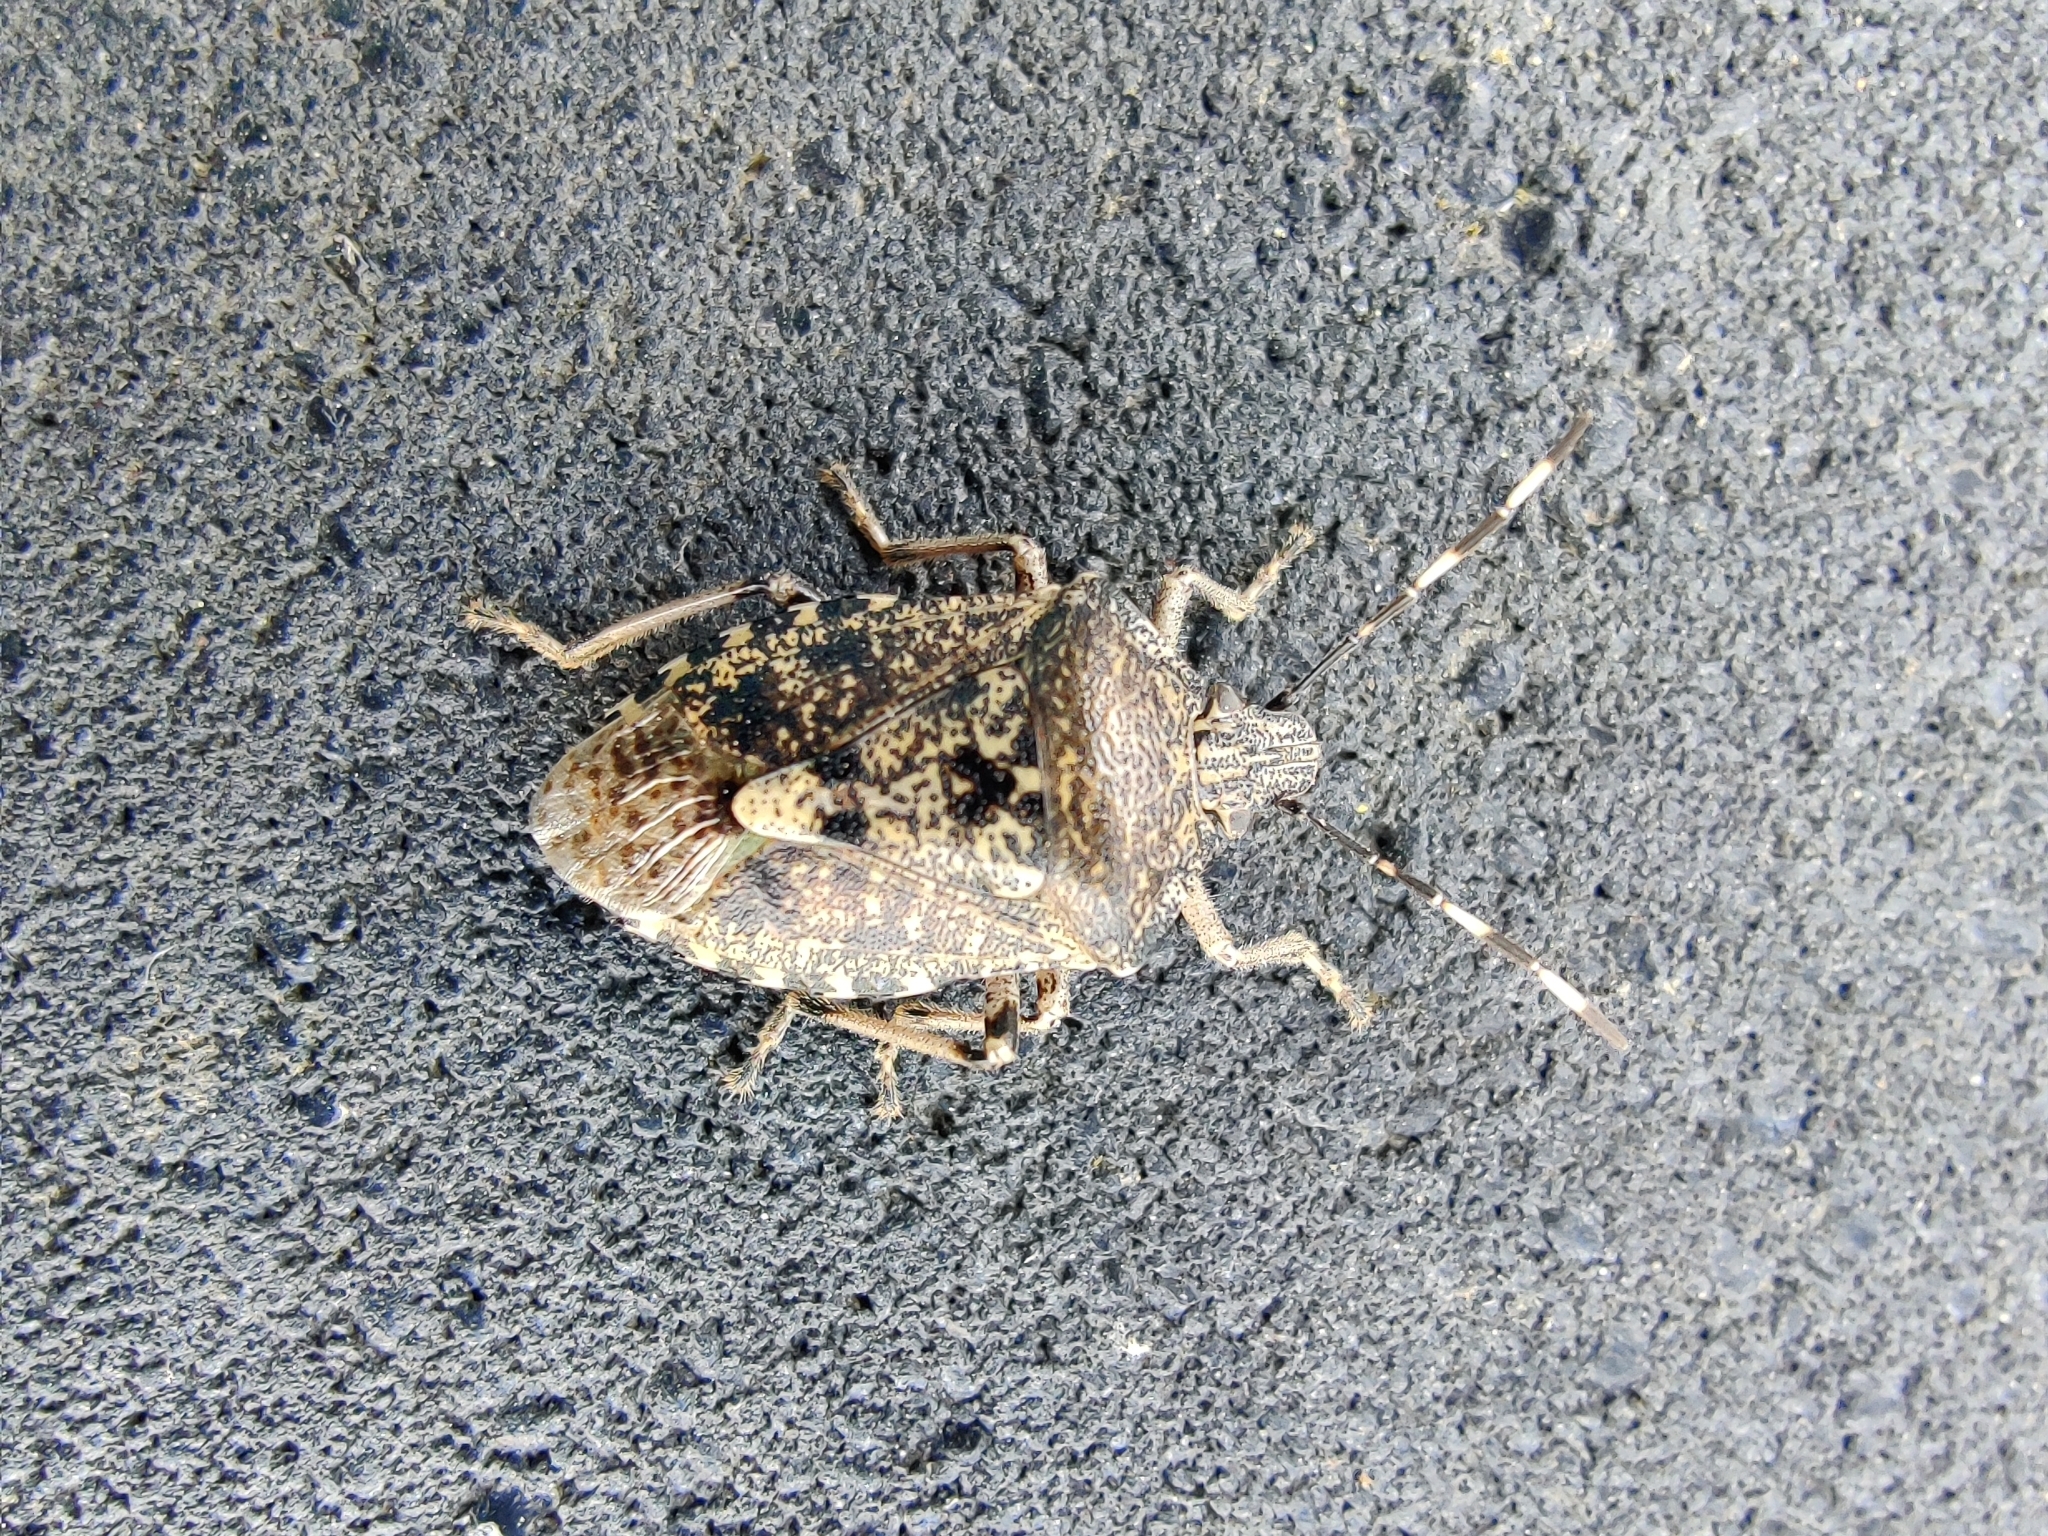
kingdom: Animalia
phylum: Arthropoda
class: Insecta
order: Hemiptera
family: Pentatomidae
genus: Rhaphigaster
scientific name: Rhaphigaster nebulosa
